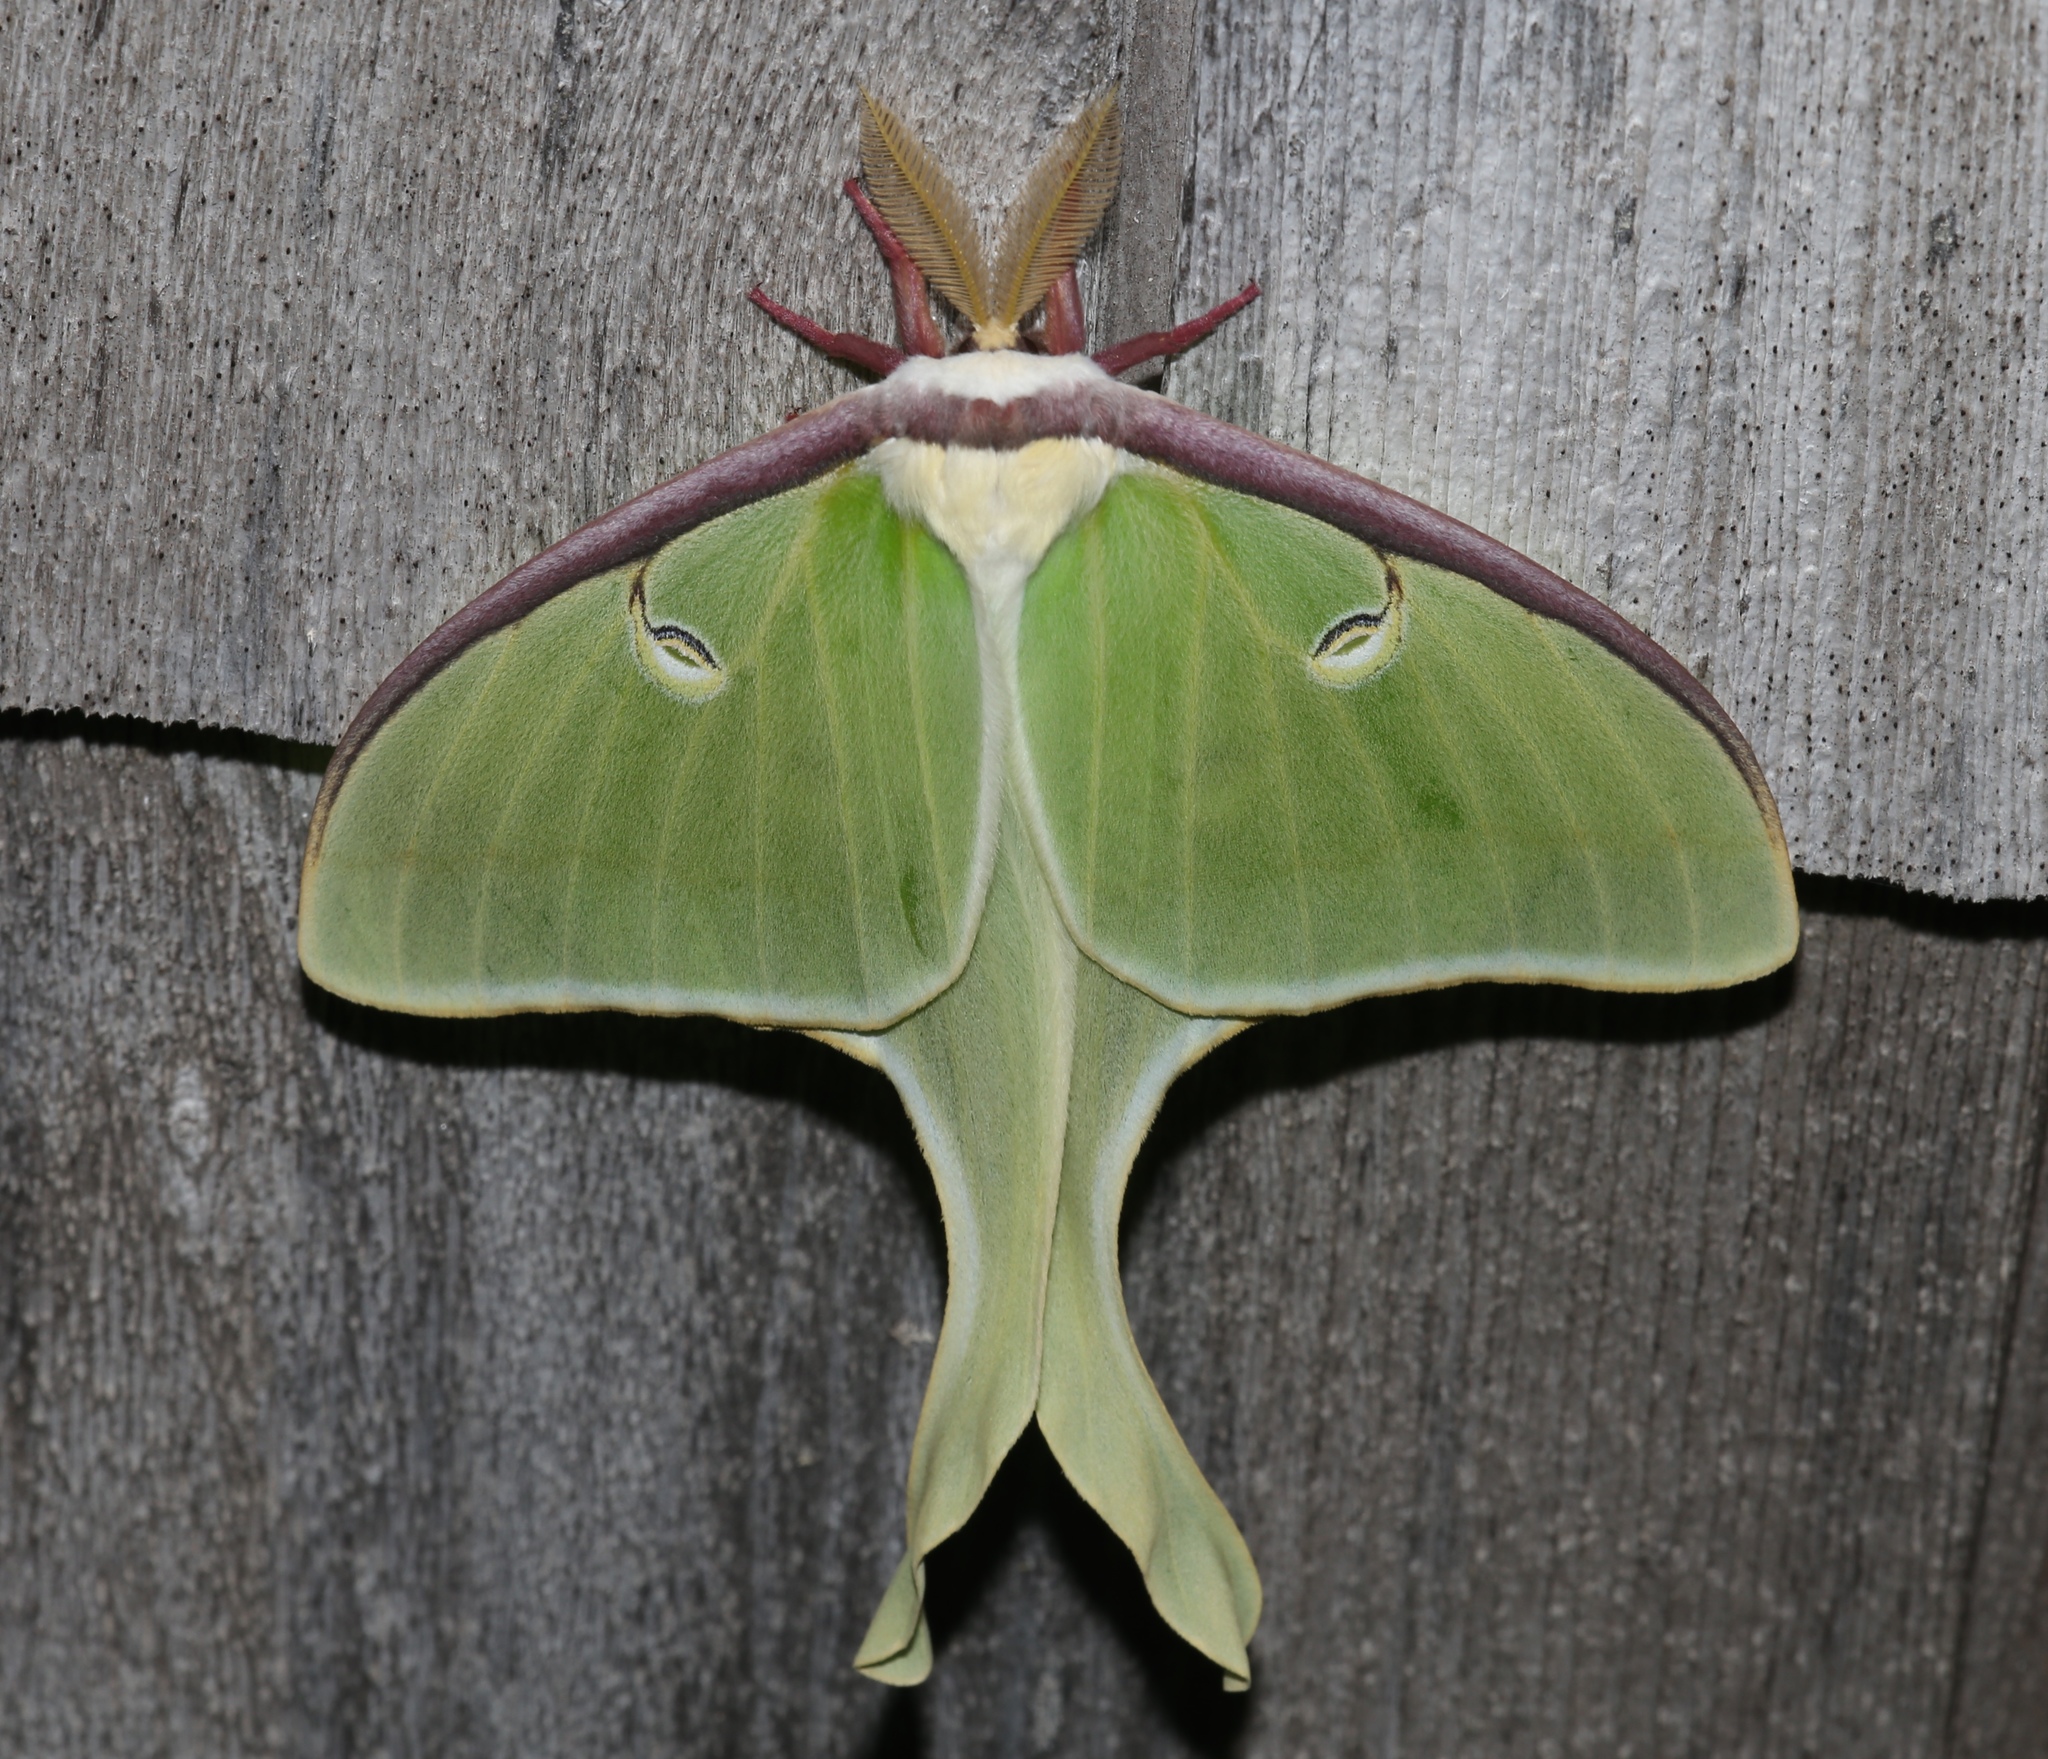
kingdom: Animalia
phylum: Arthropoda
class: Insecta
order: Lepidoptera
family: Saturniidae
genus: Actias
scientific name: Actias luna
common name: Luna moth
